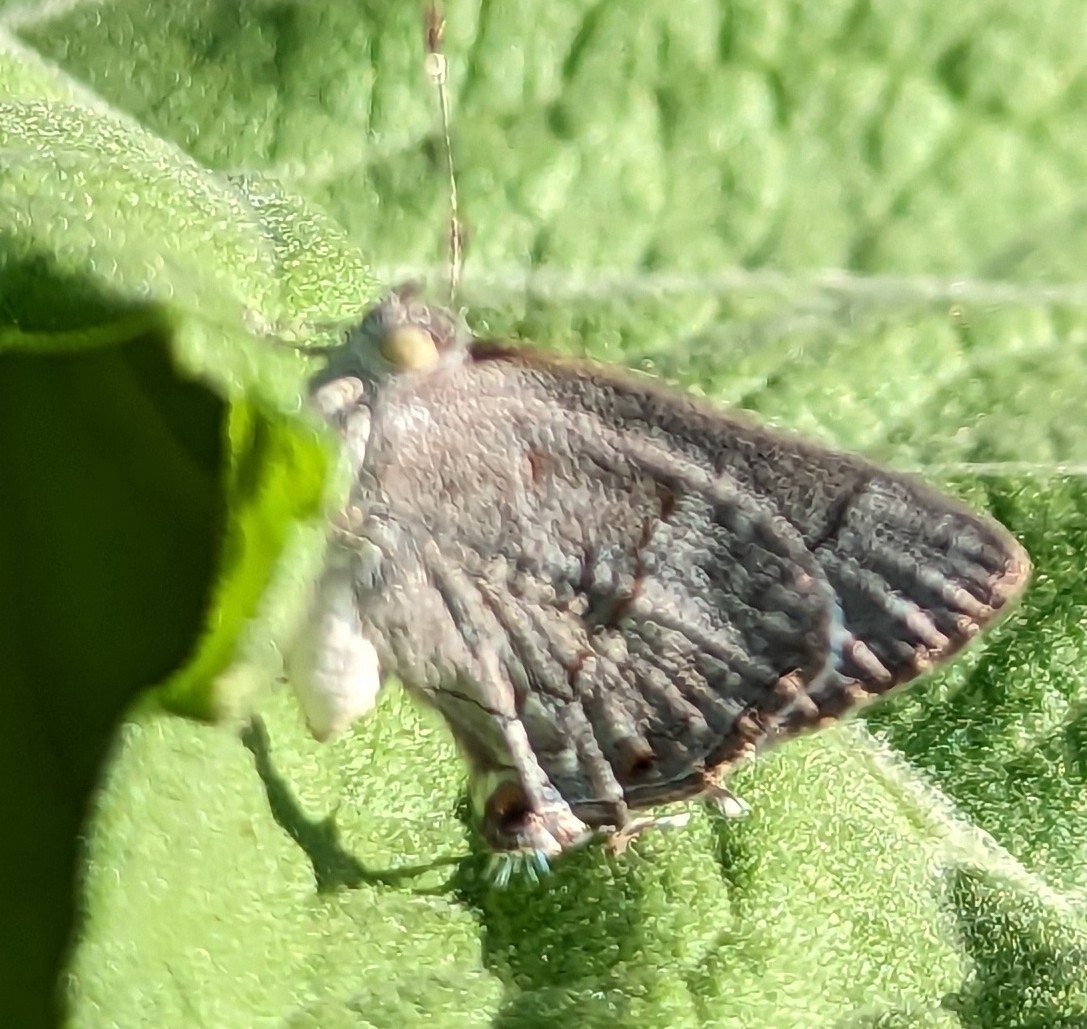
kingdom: Animalia
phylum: Arthropoda
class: Insecta
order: Lepidoptera
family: Lycaenidae
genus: Ministrymon
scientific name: Ministrymon leda
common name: Leda ministreak
